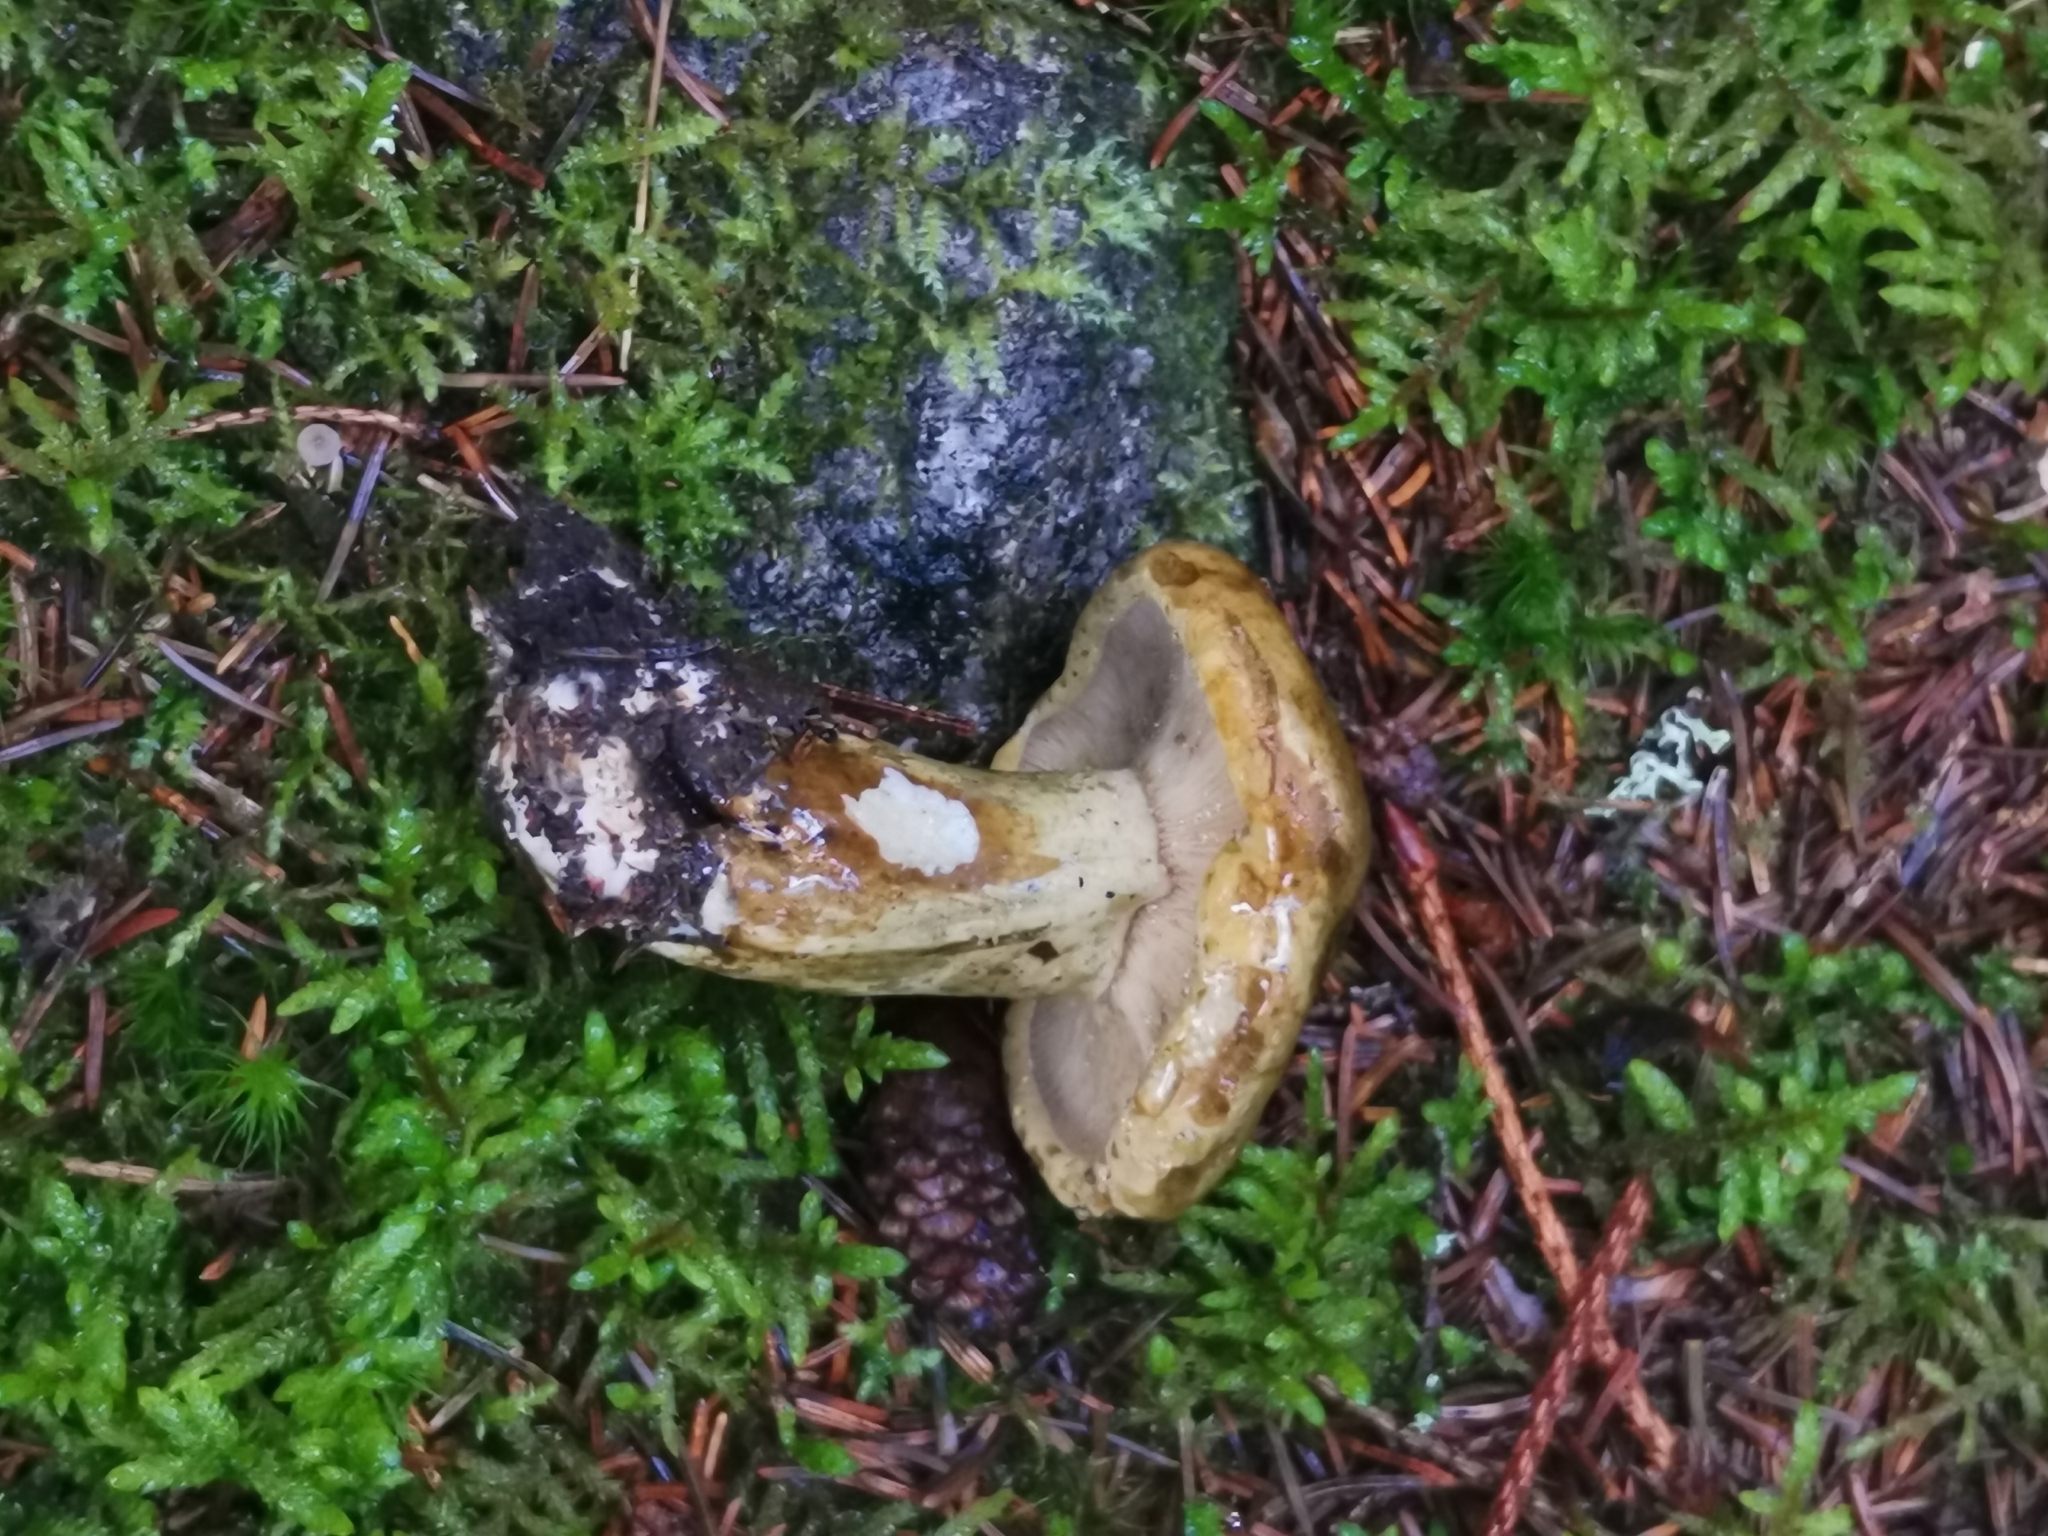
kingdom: Fungi
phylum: Basidiomycota
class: Agaricomycetes
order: Russulales
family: Russulaceae
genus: Lactarius
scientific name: Lactarius turpis
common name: Ugly milk-cap
